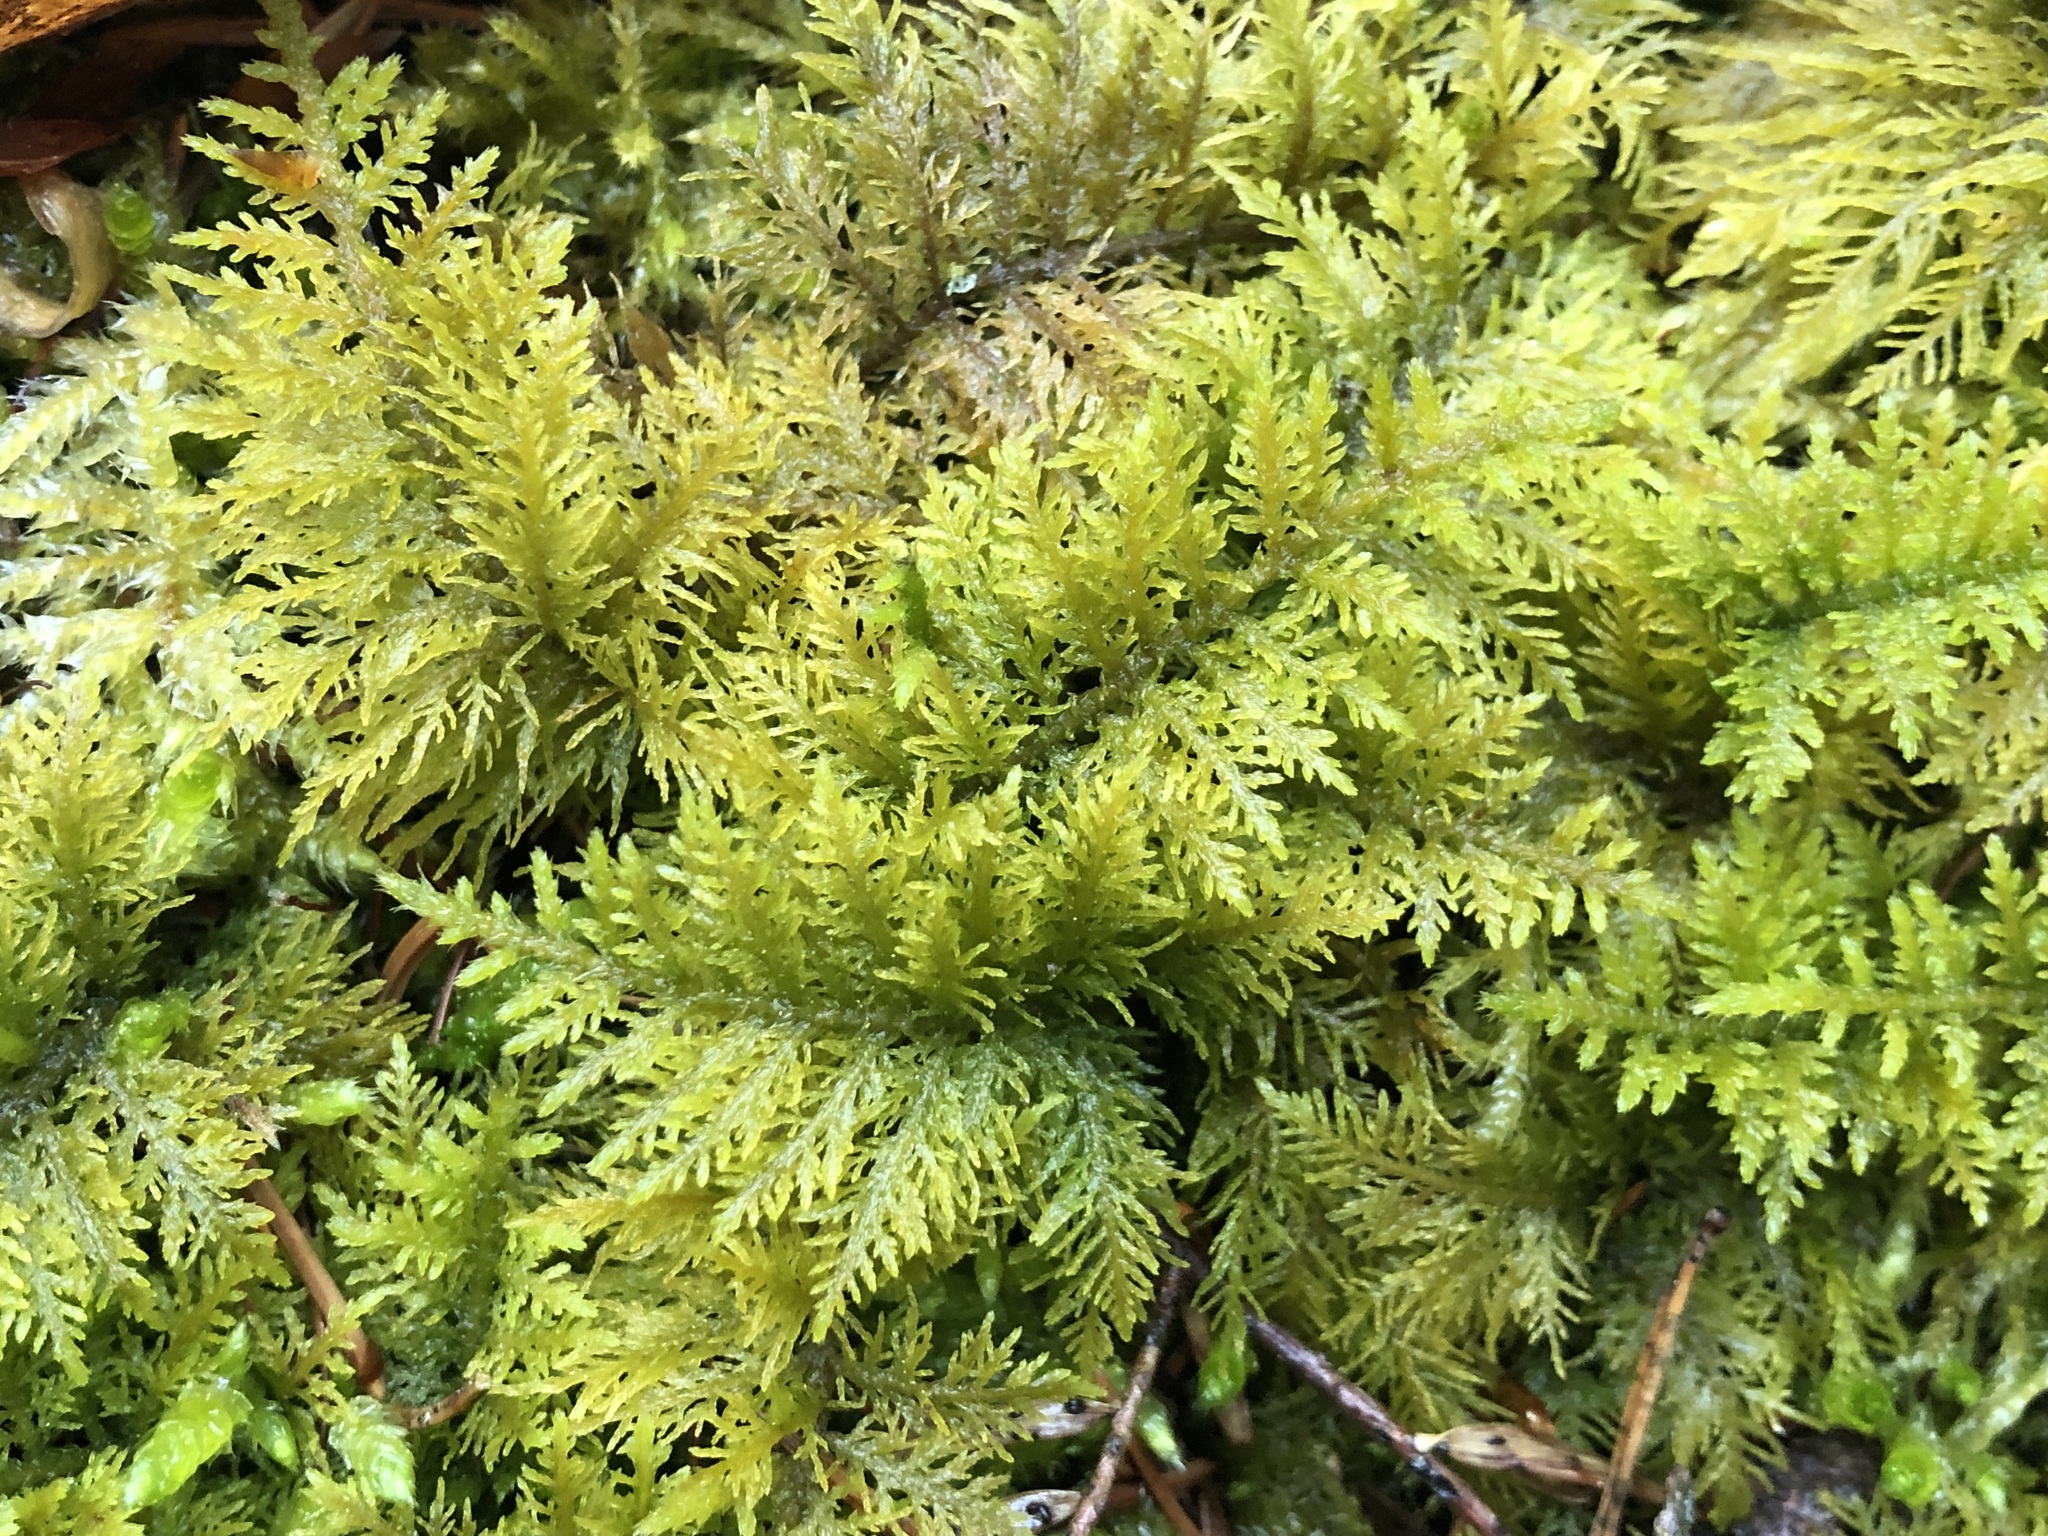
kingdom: Plantae
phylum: Bryophyta
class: Bryopsida
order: Hypnales
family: Thuidiaceae
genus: Thuidium
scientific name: Thuidium tamariscinum
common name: Common tamarisk-moss
